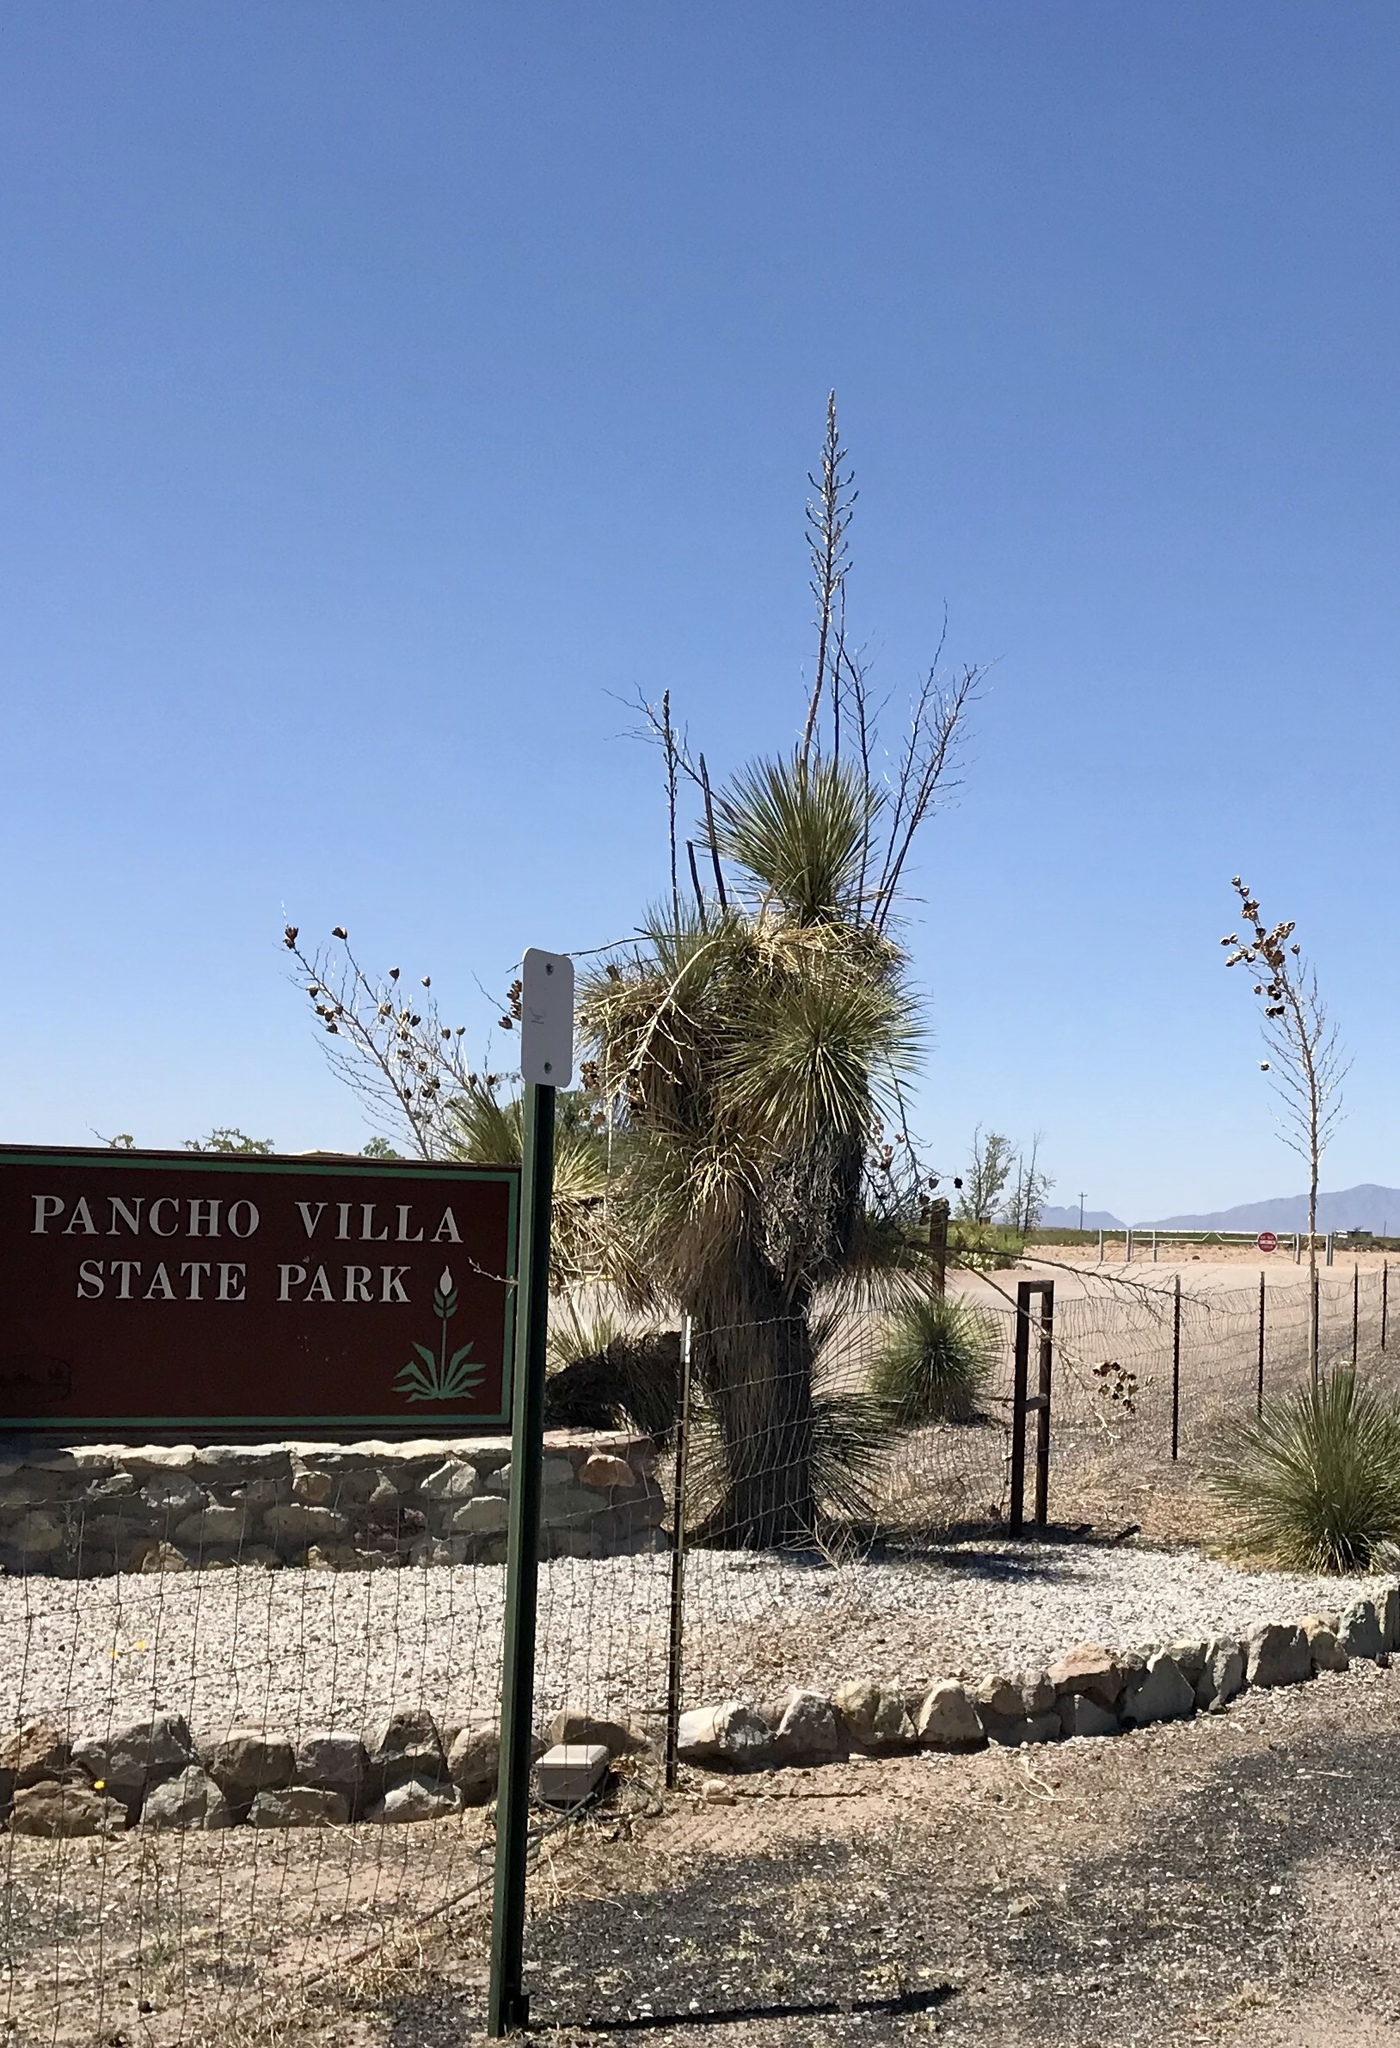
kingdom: Plantae
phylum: Tracheophyta
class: Liliopsida
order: Asparagales
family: Asparagaceae
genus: Yucca
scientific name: Yucca elata
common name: Palmella
